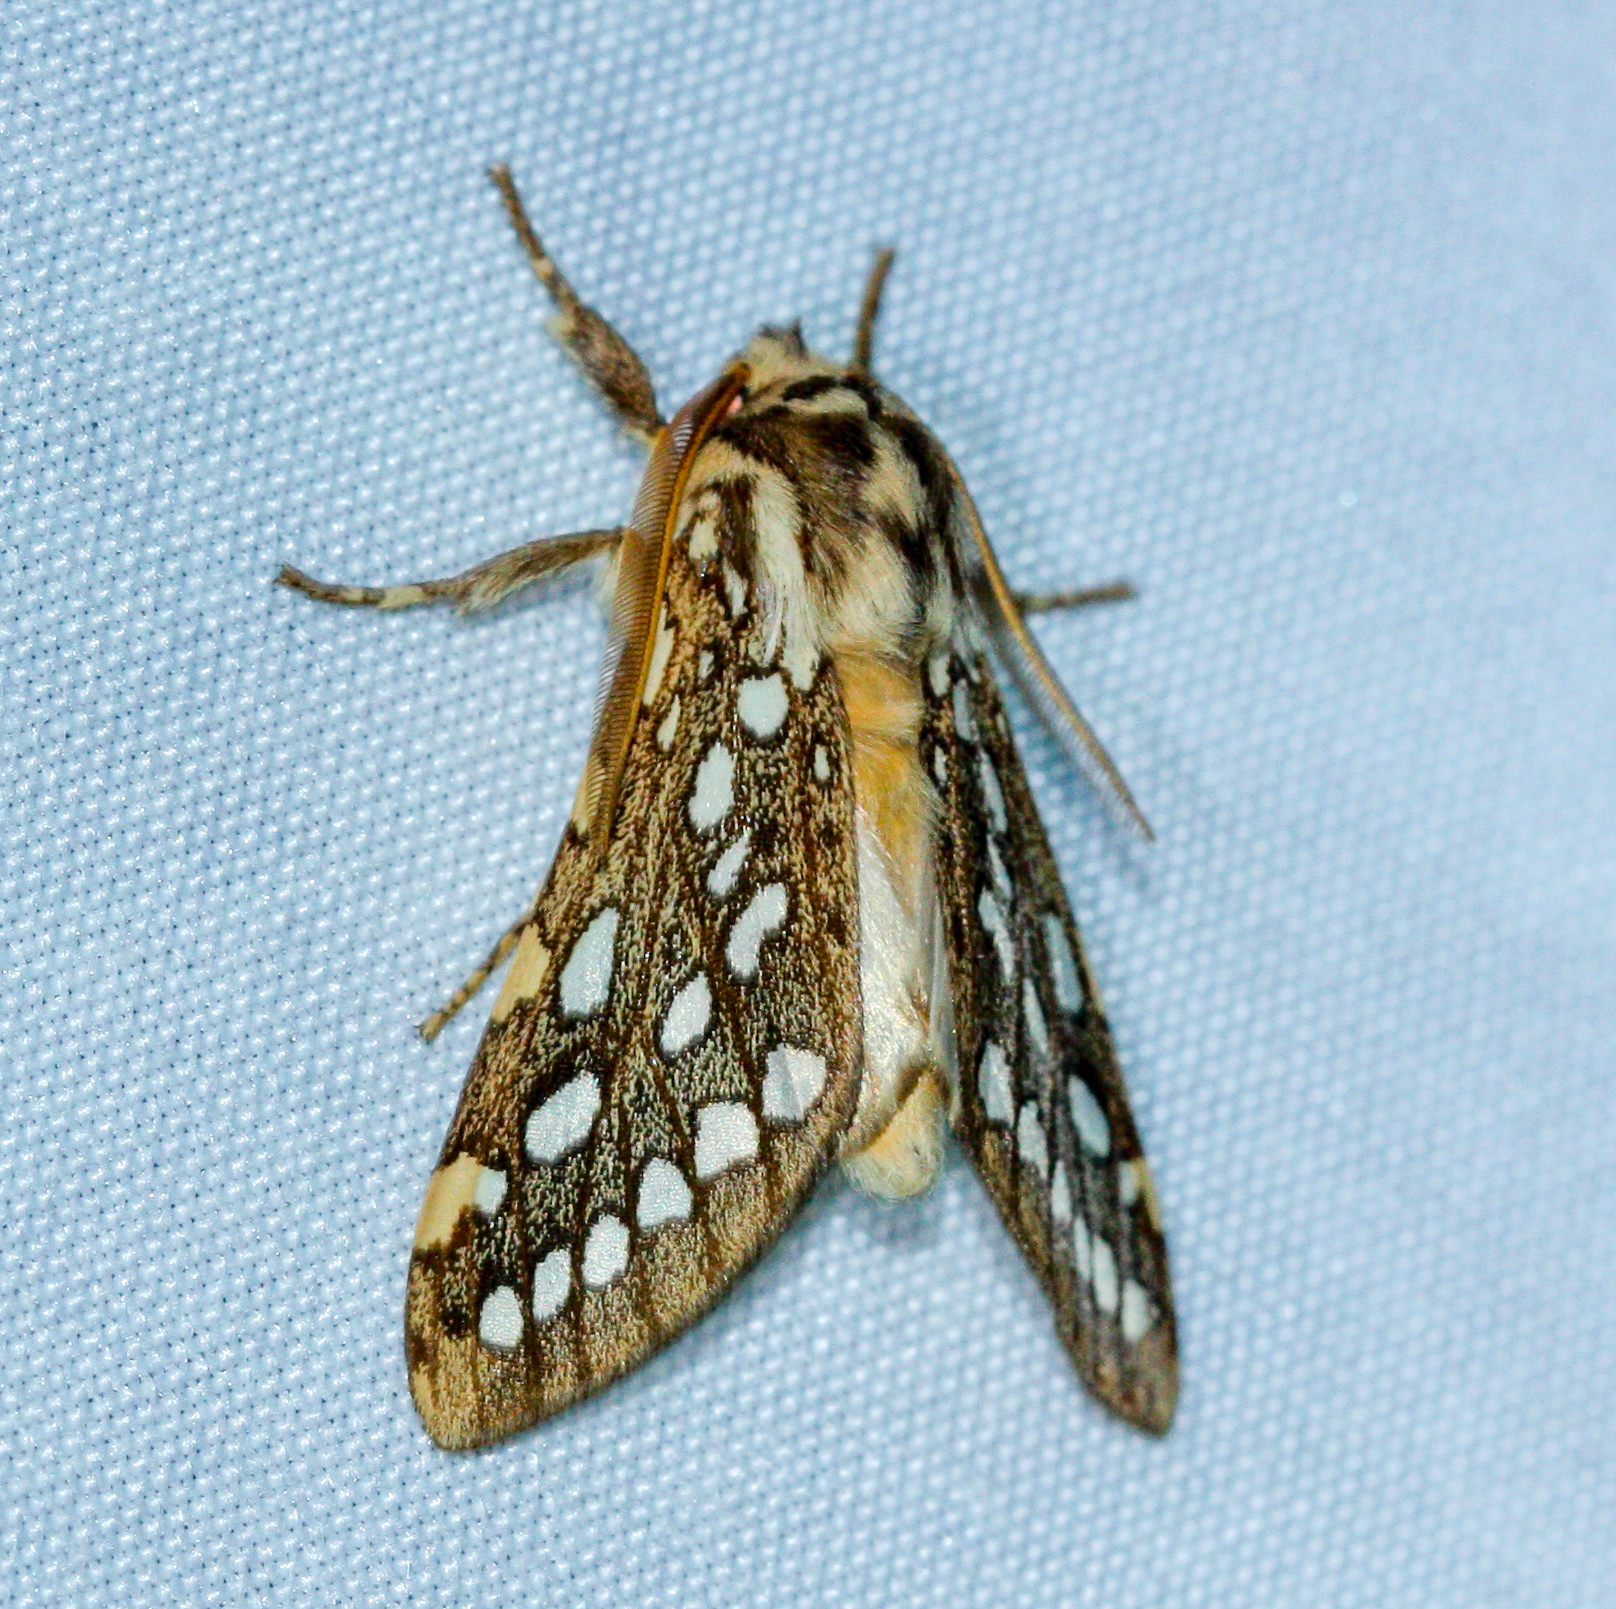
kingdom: Animalia
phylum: Arthropoda
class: Insecta
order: Lepidoptera
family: Erebidae
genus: Lophocampa
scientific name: Lophocampa argentata
